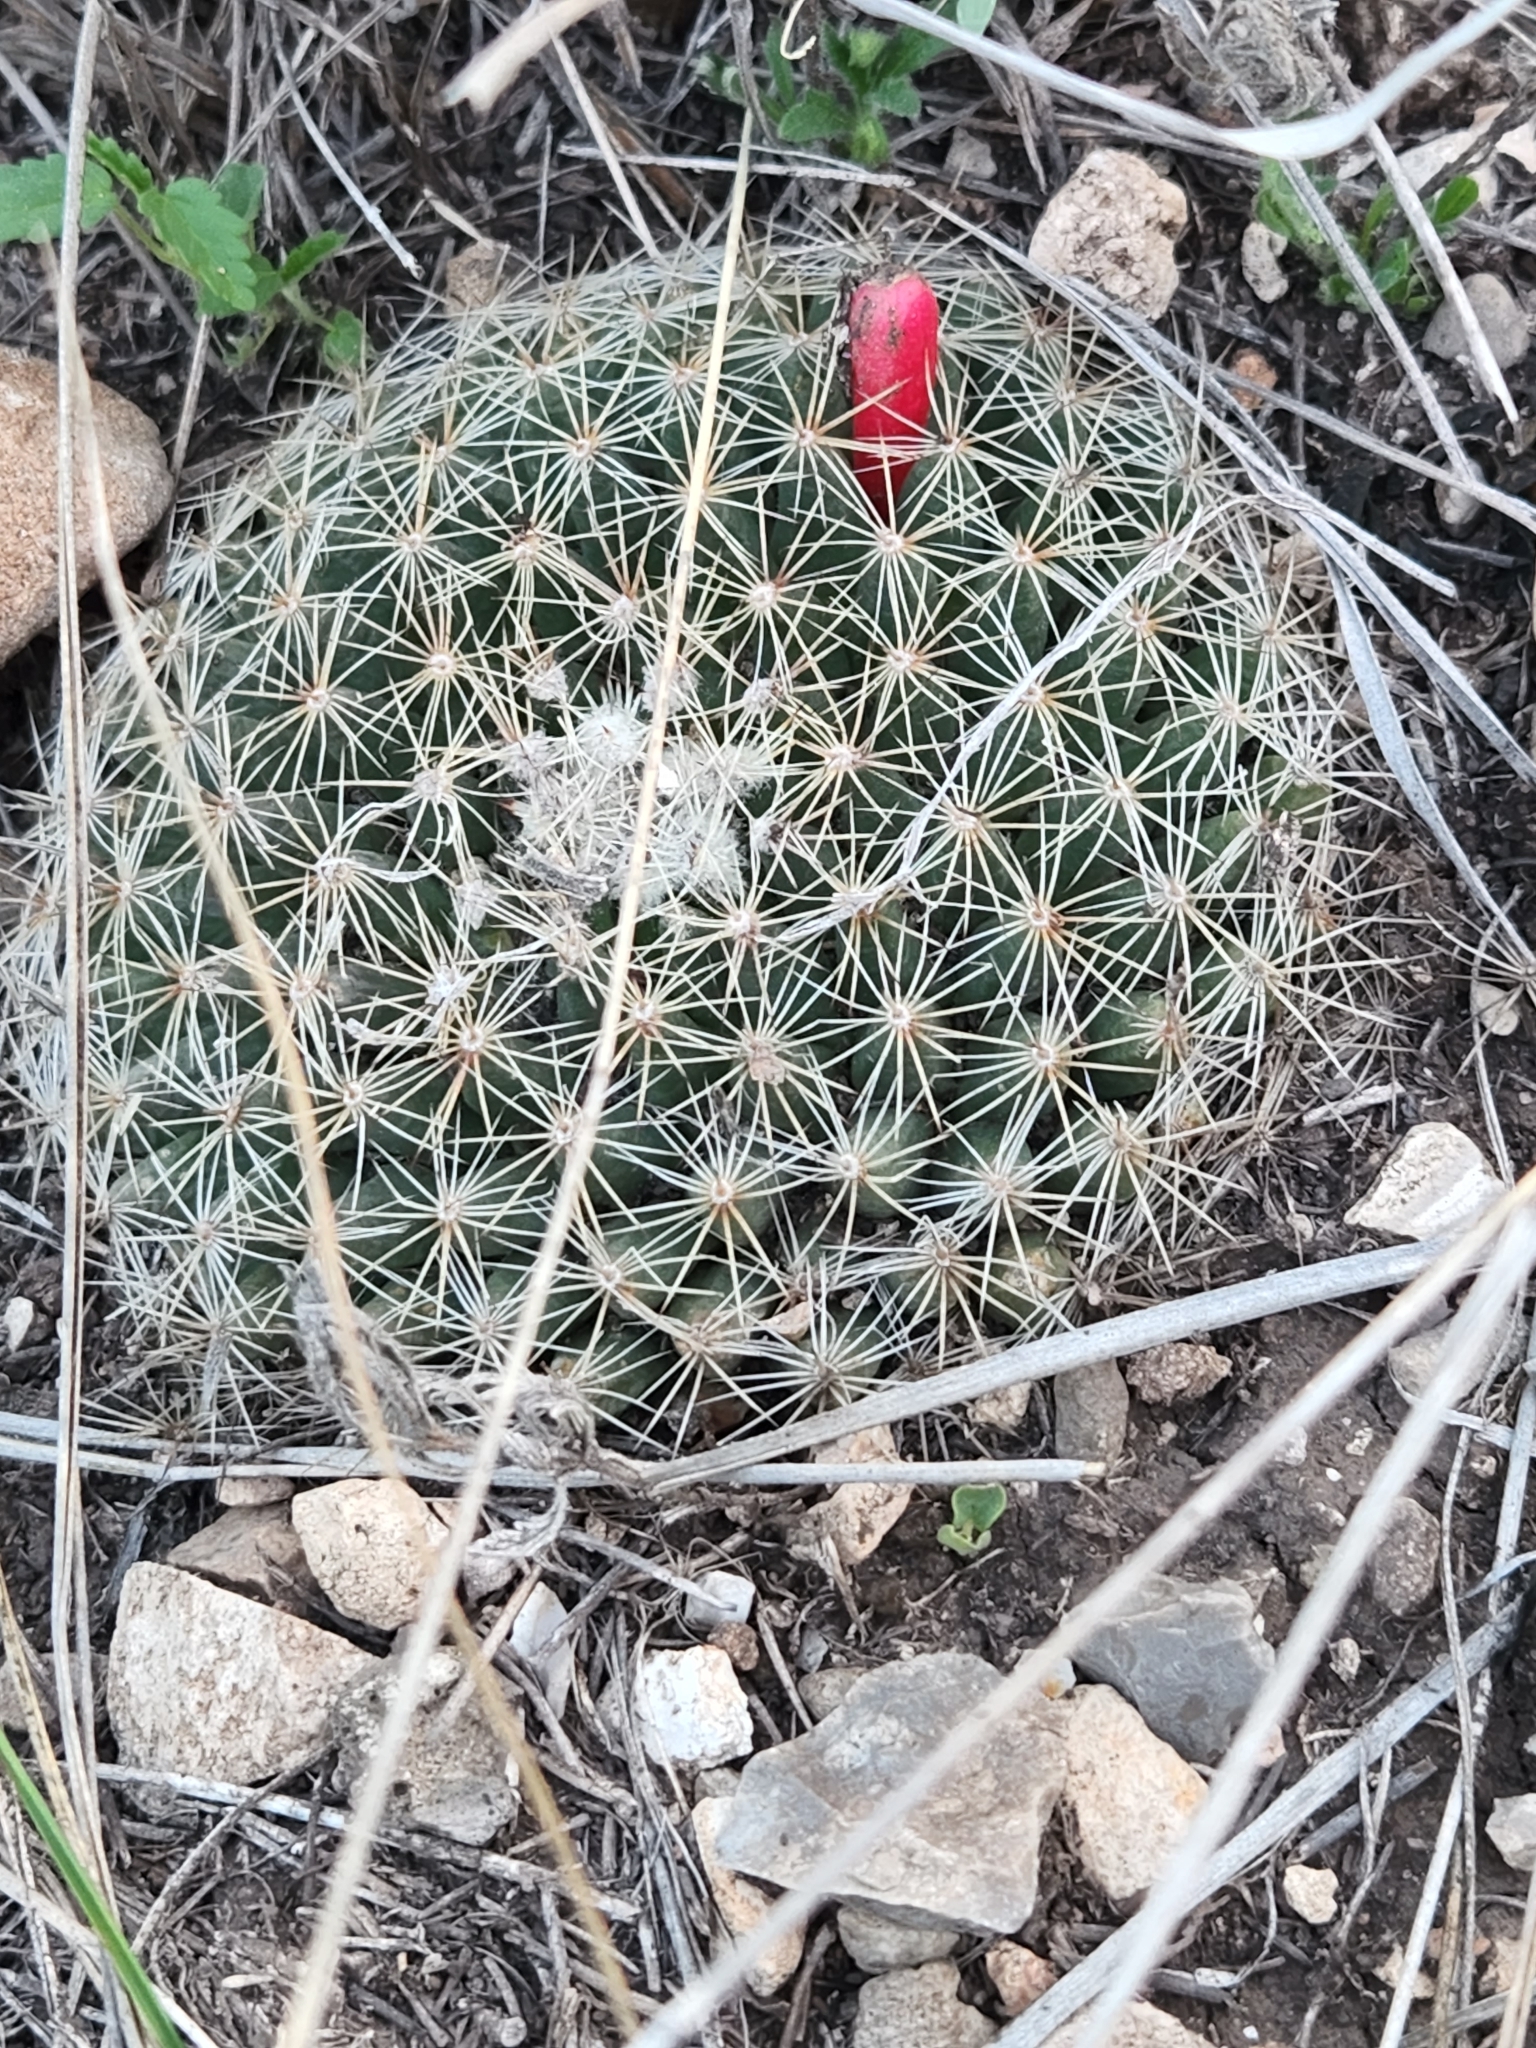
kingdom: Plantae
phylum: Tracheophyta
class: Magnoliopsida
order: Caryophyllales
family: Cactaceae
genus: Mammillaria
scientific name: Mammillaria heyderi
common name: Little nipple cactus
